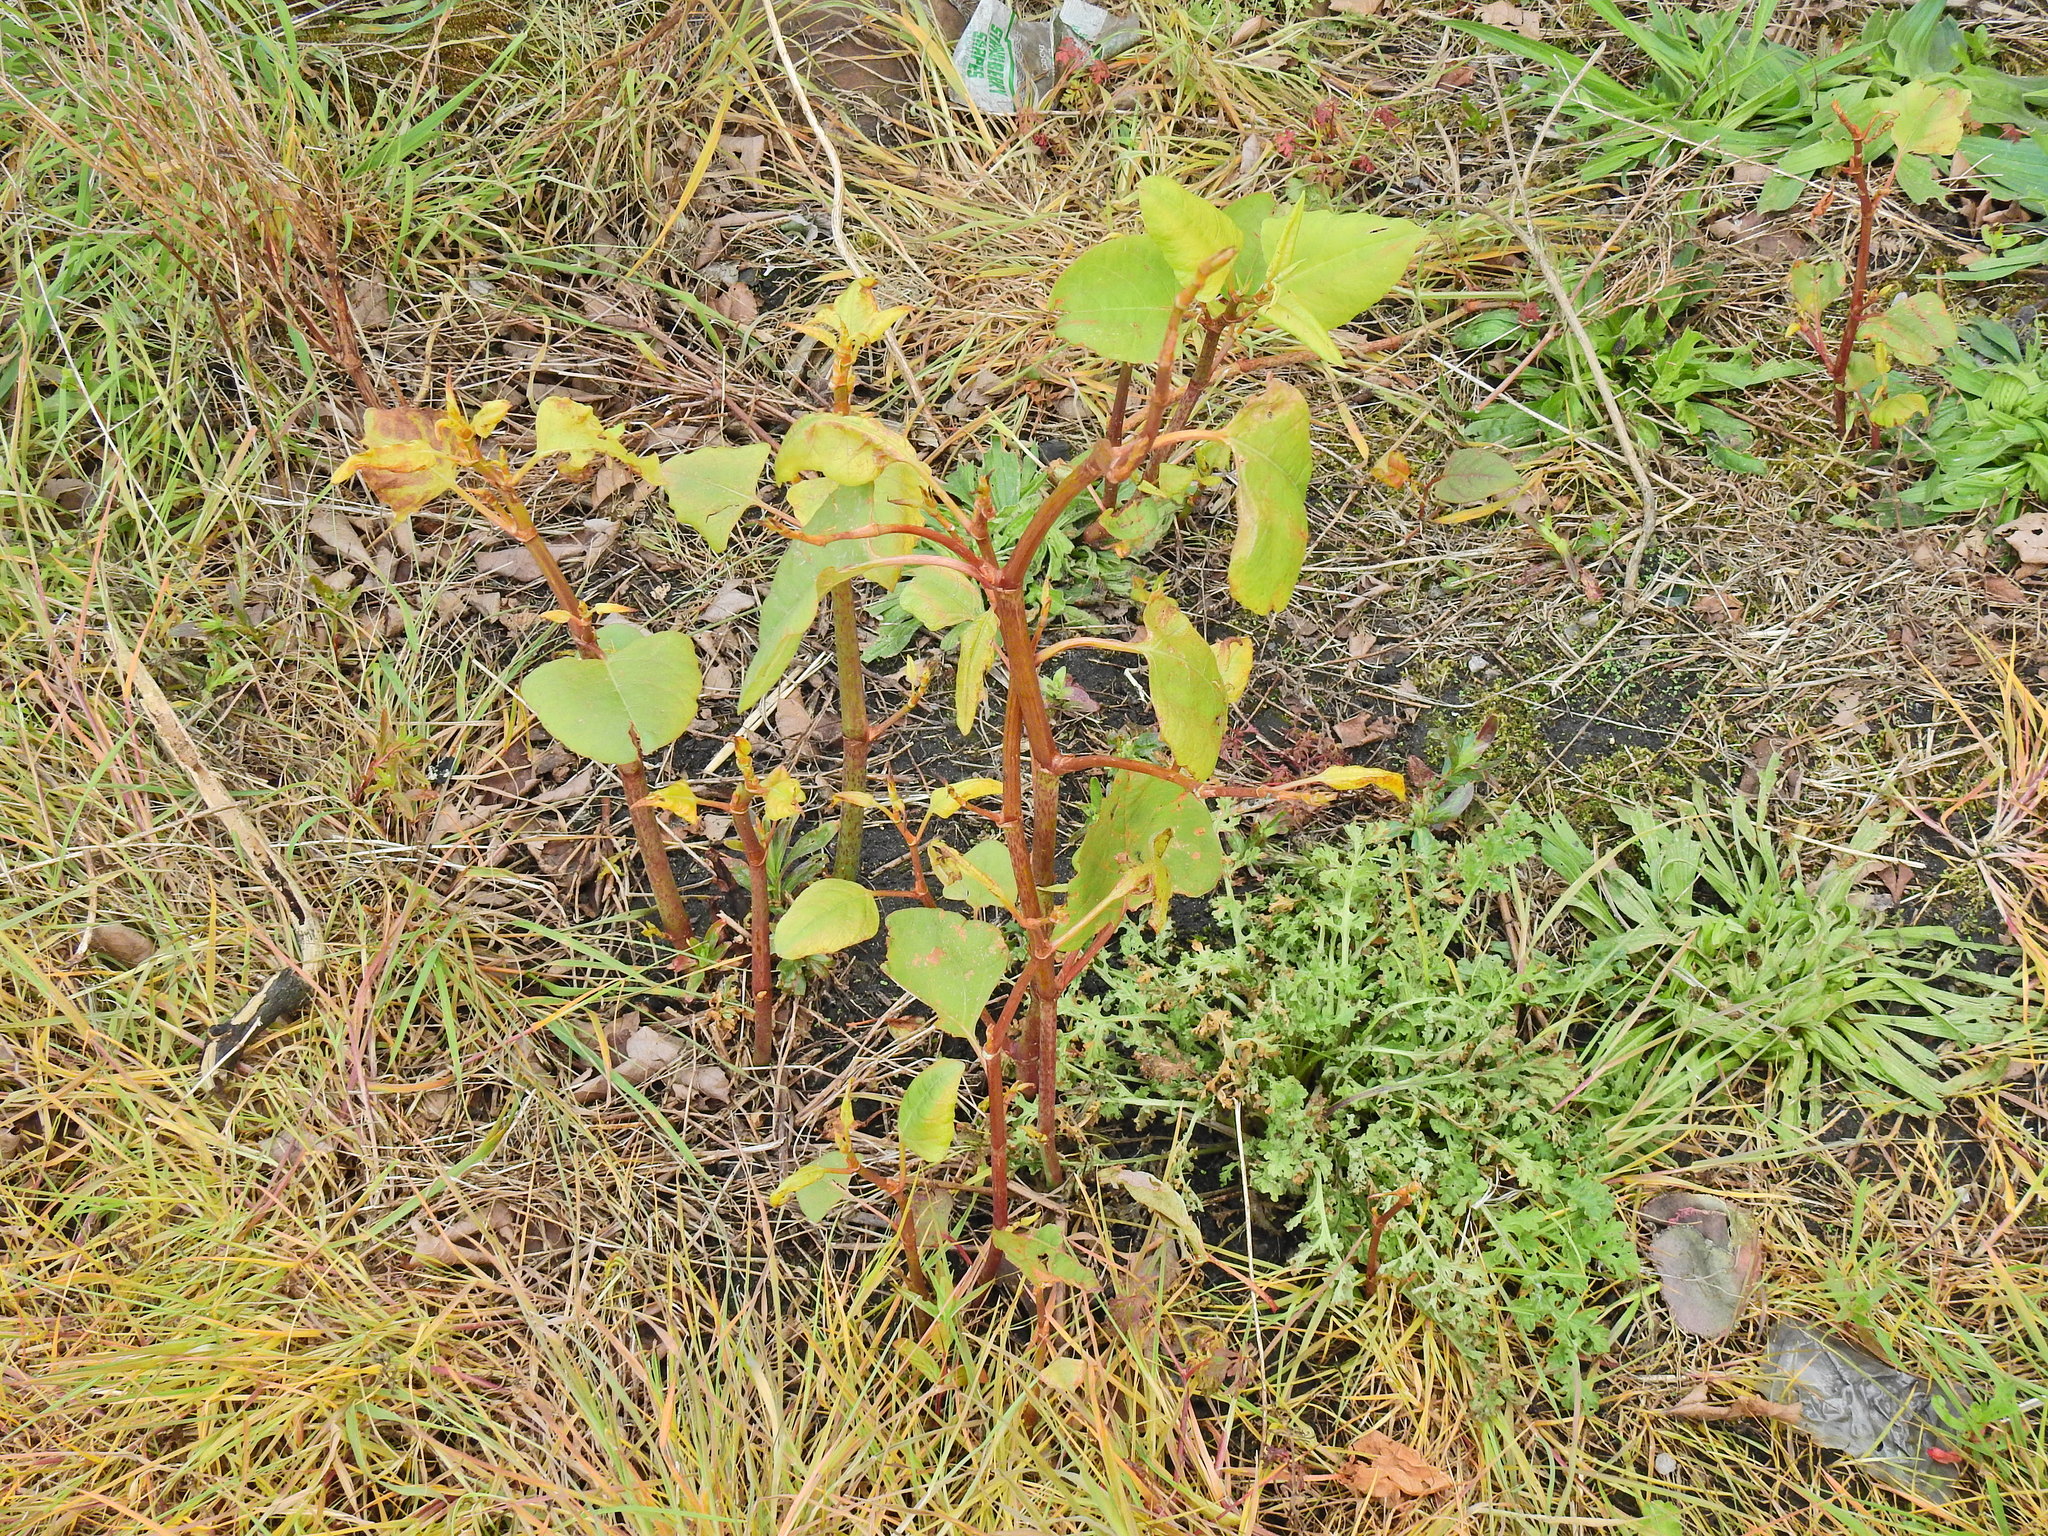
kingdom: Plantae
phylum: Tracheophyta
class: Magnoliopsida
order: Caryophyllales
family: Polygonaceae
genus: Reynoutria
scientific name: Reynoutria japonica
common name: Japanese knotweed
